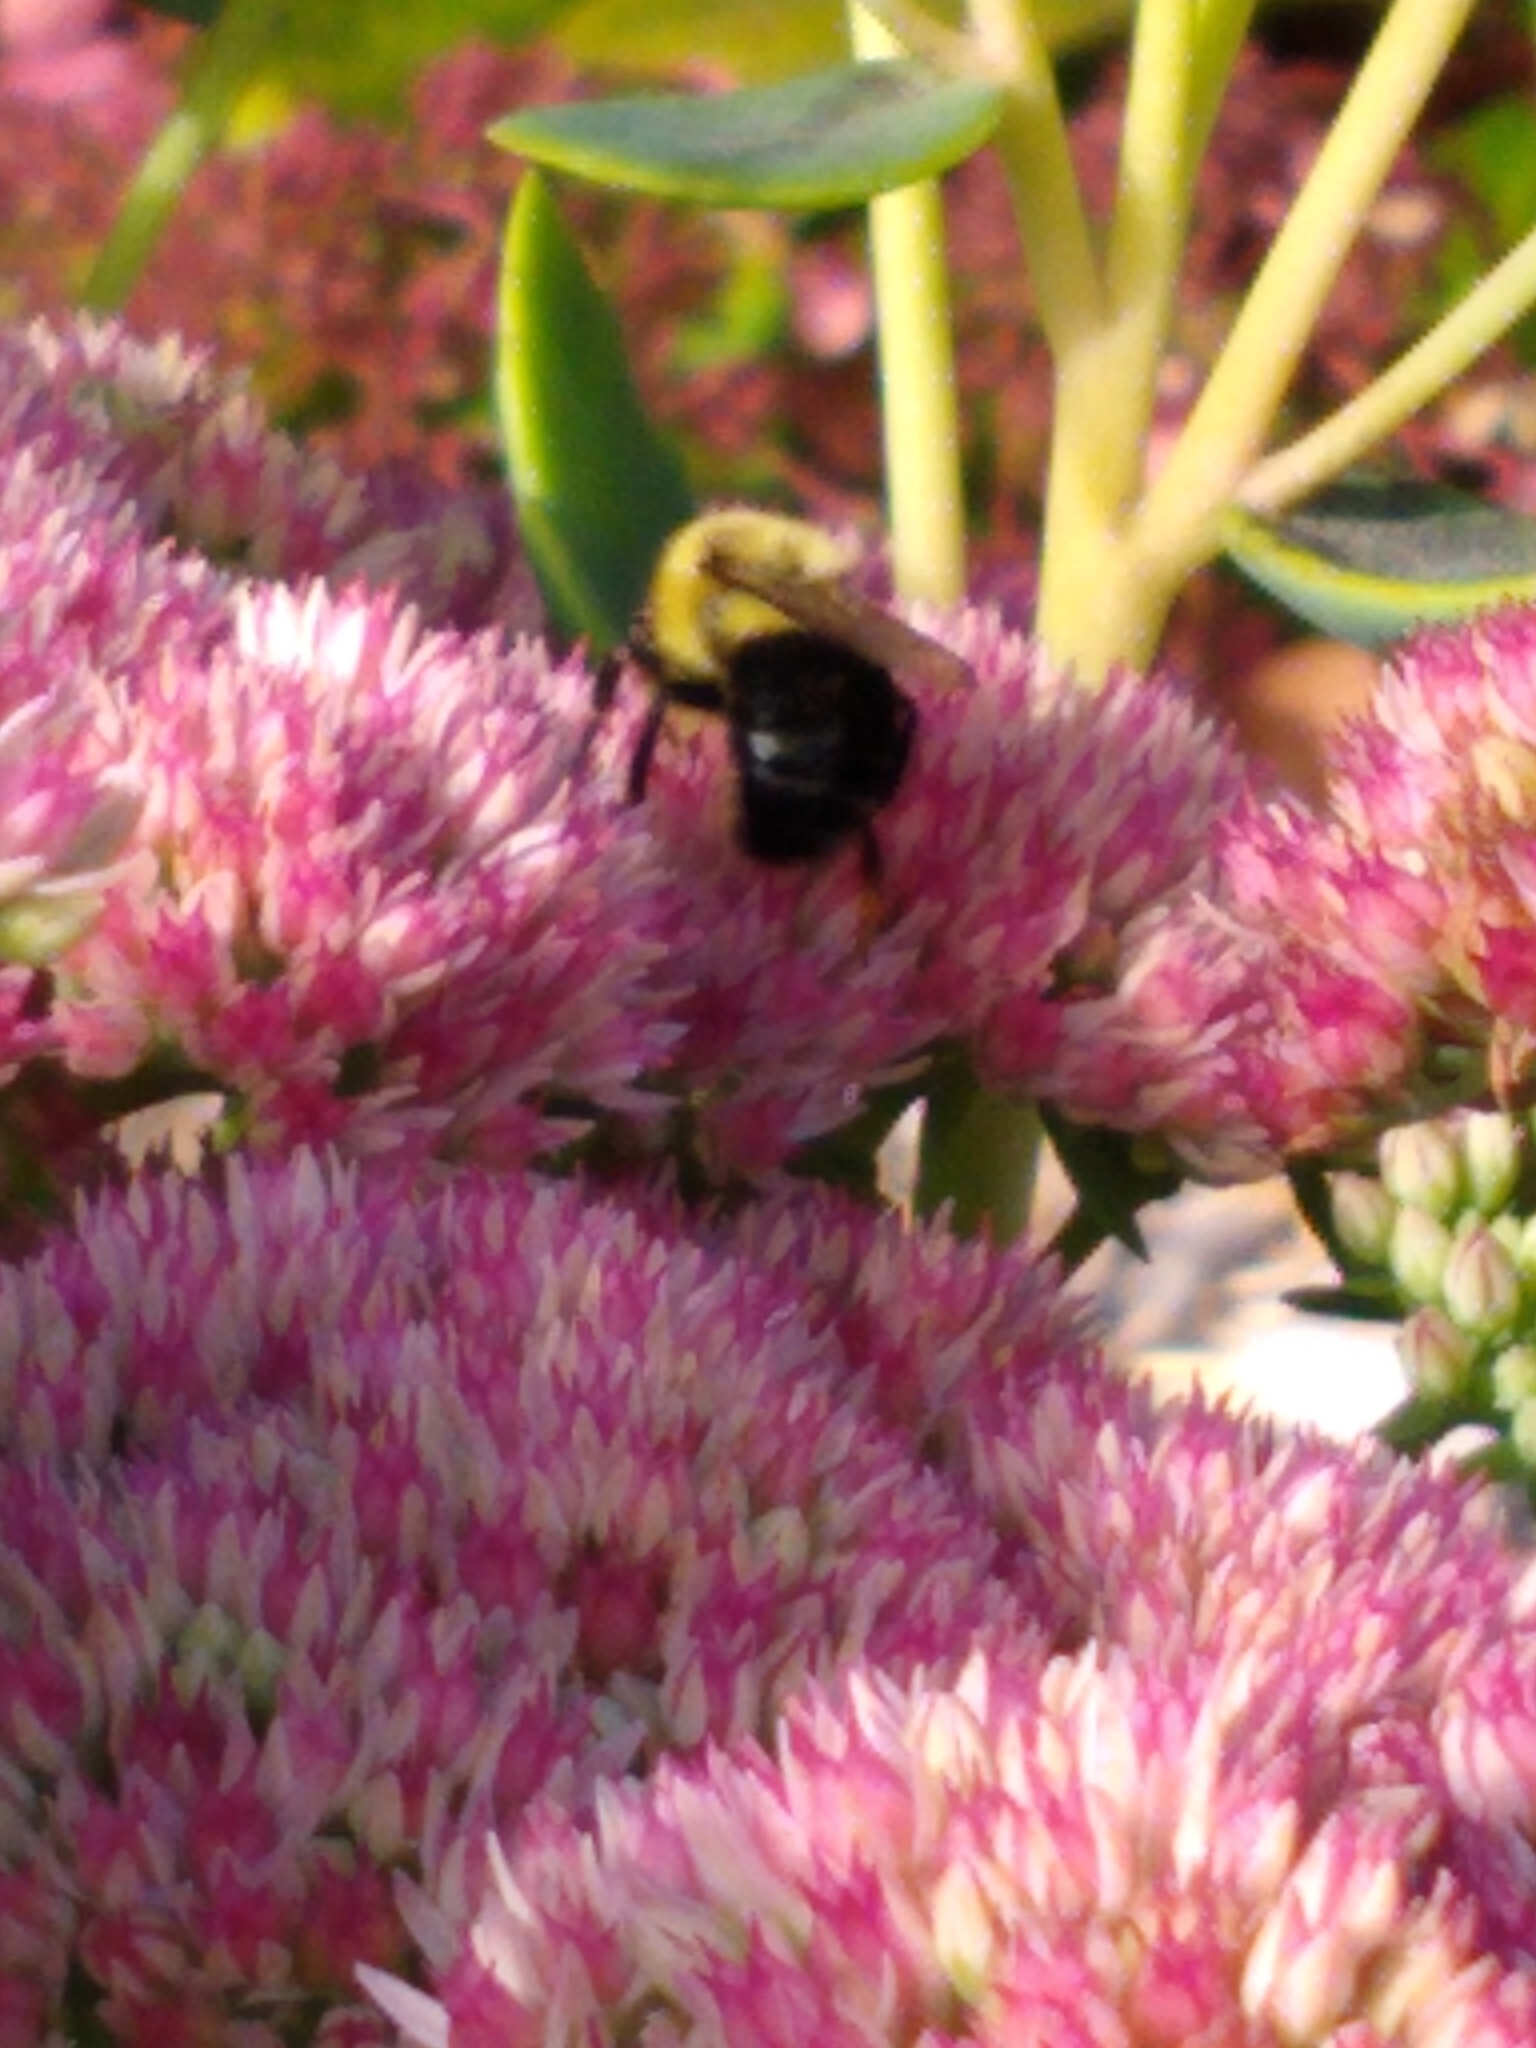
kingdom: Animalia
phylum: Arthropoda
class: Insecta
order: Hymenoptera
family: Apidae
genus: Bombus
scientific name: Bombus impatiens
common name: Common eastern bumble bee
